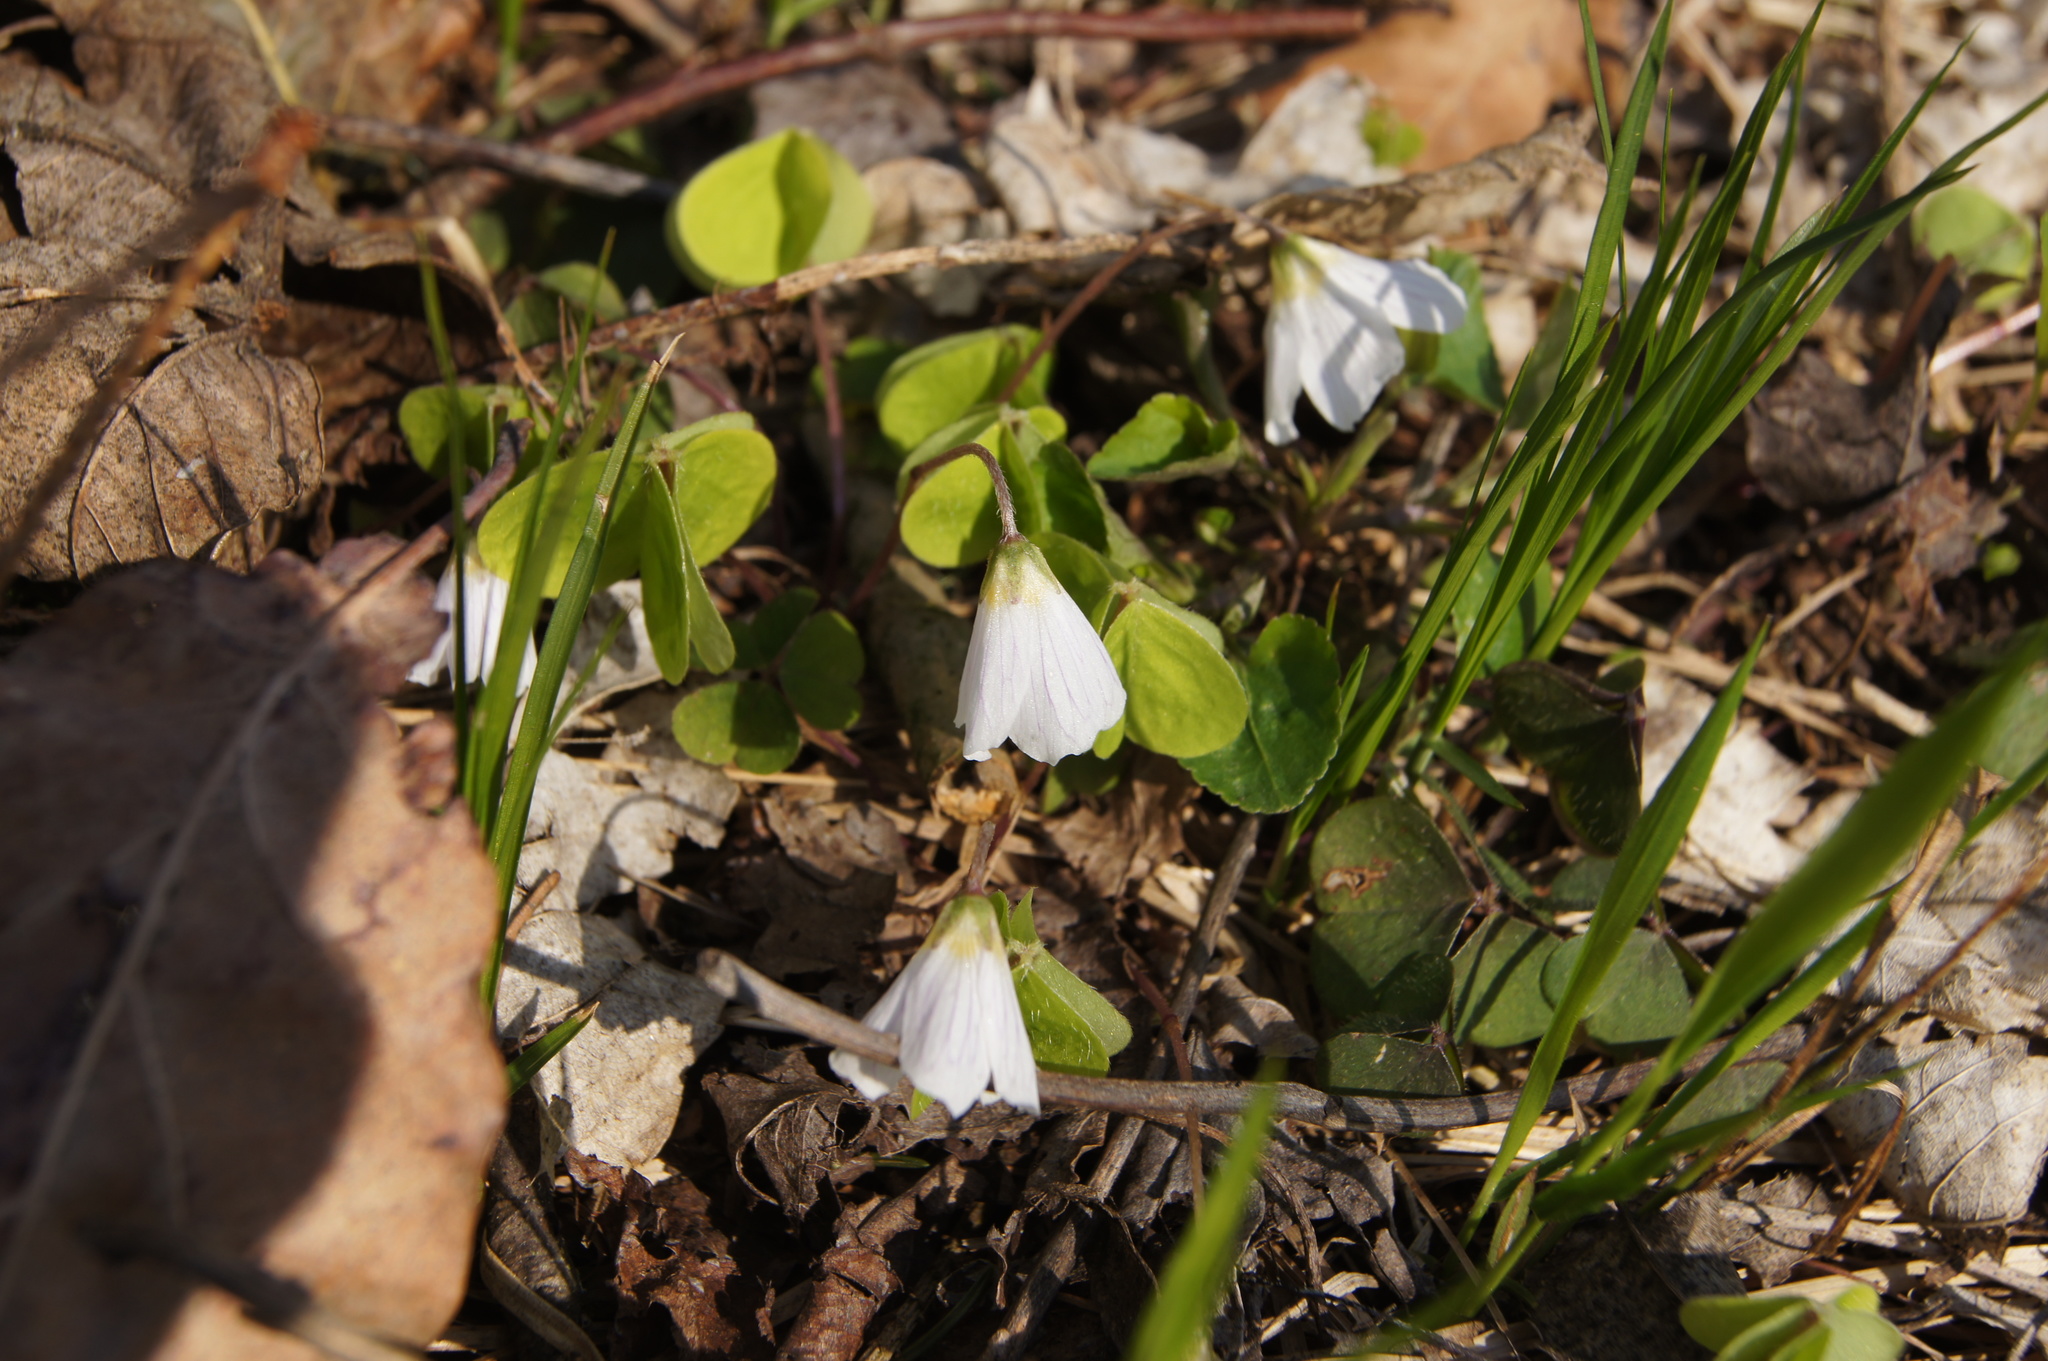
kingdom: Plantae
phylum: Tracheophyta
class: Magnoliopsida
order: Oxalidales
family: Oxalidaceae
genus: Oxalis
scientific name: Oxalis acetosella
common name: Wood-sorrel
